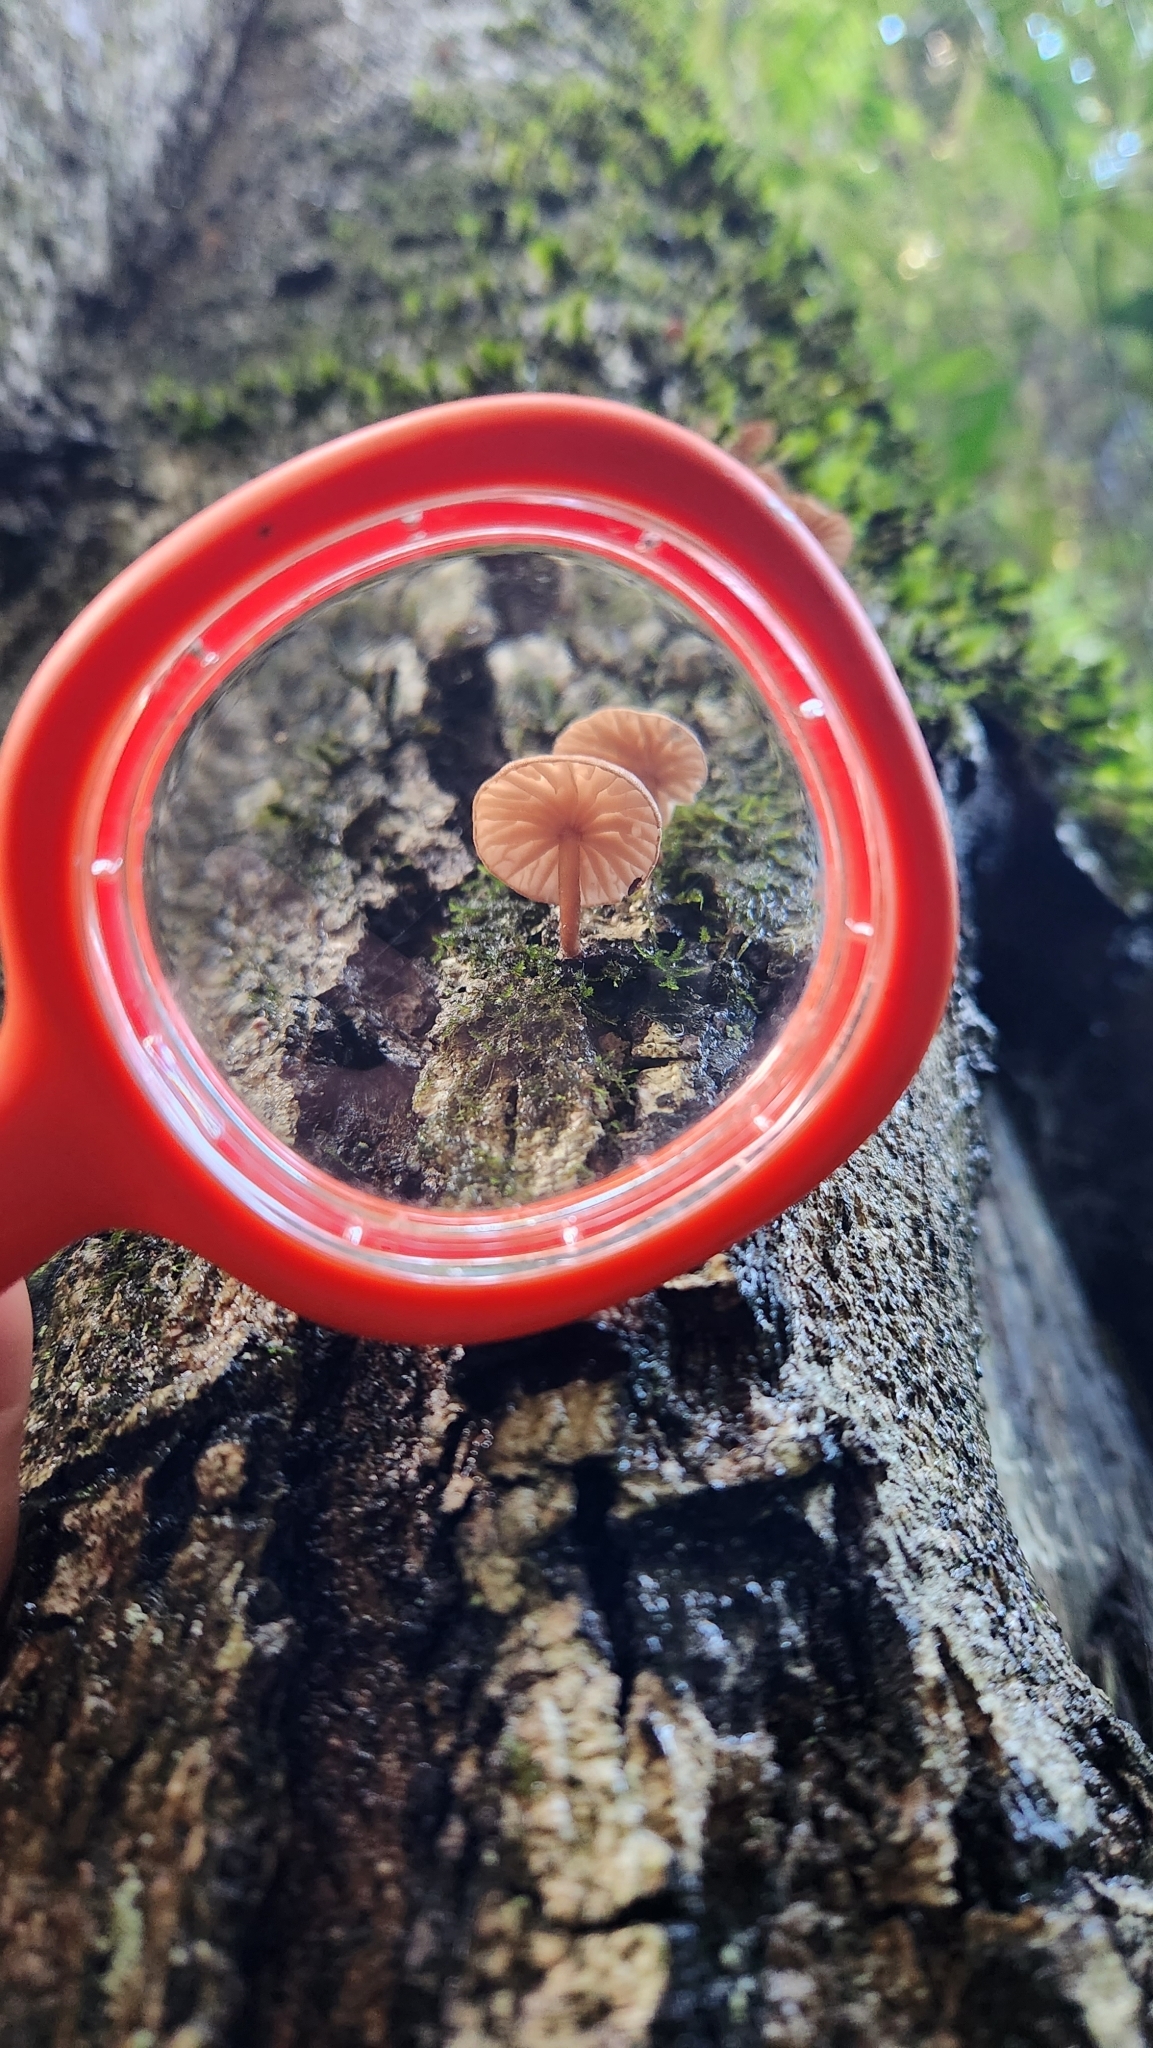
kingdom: Fungi
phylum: Basidiomycota
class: Agaricomycetes
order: Agaricales
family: Omphalotaceae
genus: Marasmiellus
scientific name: Marasmiellus alliiodorus
